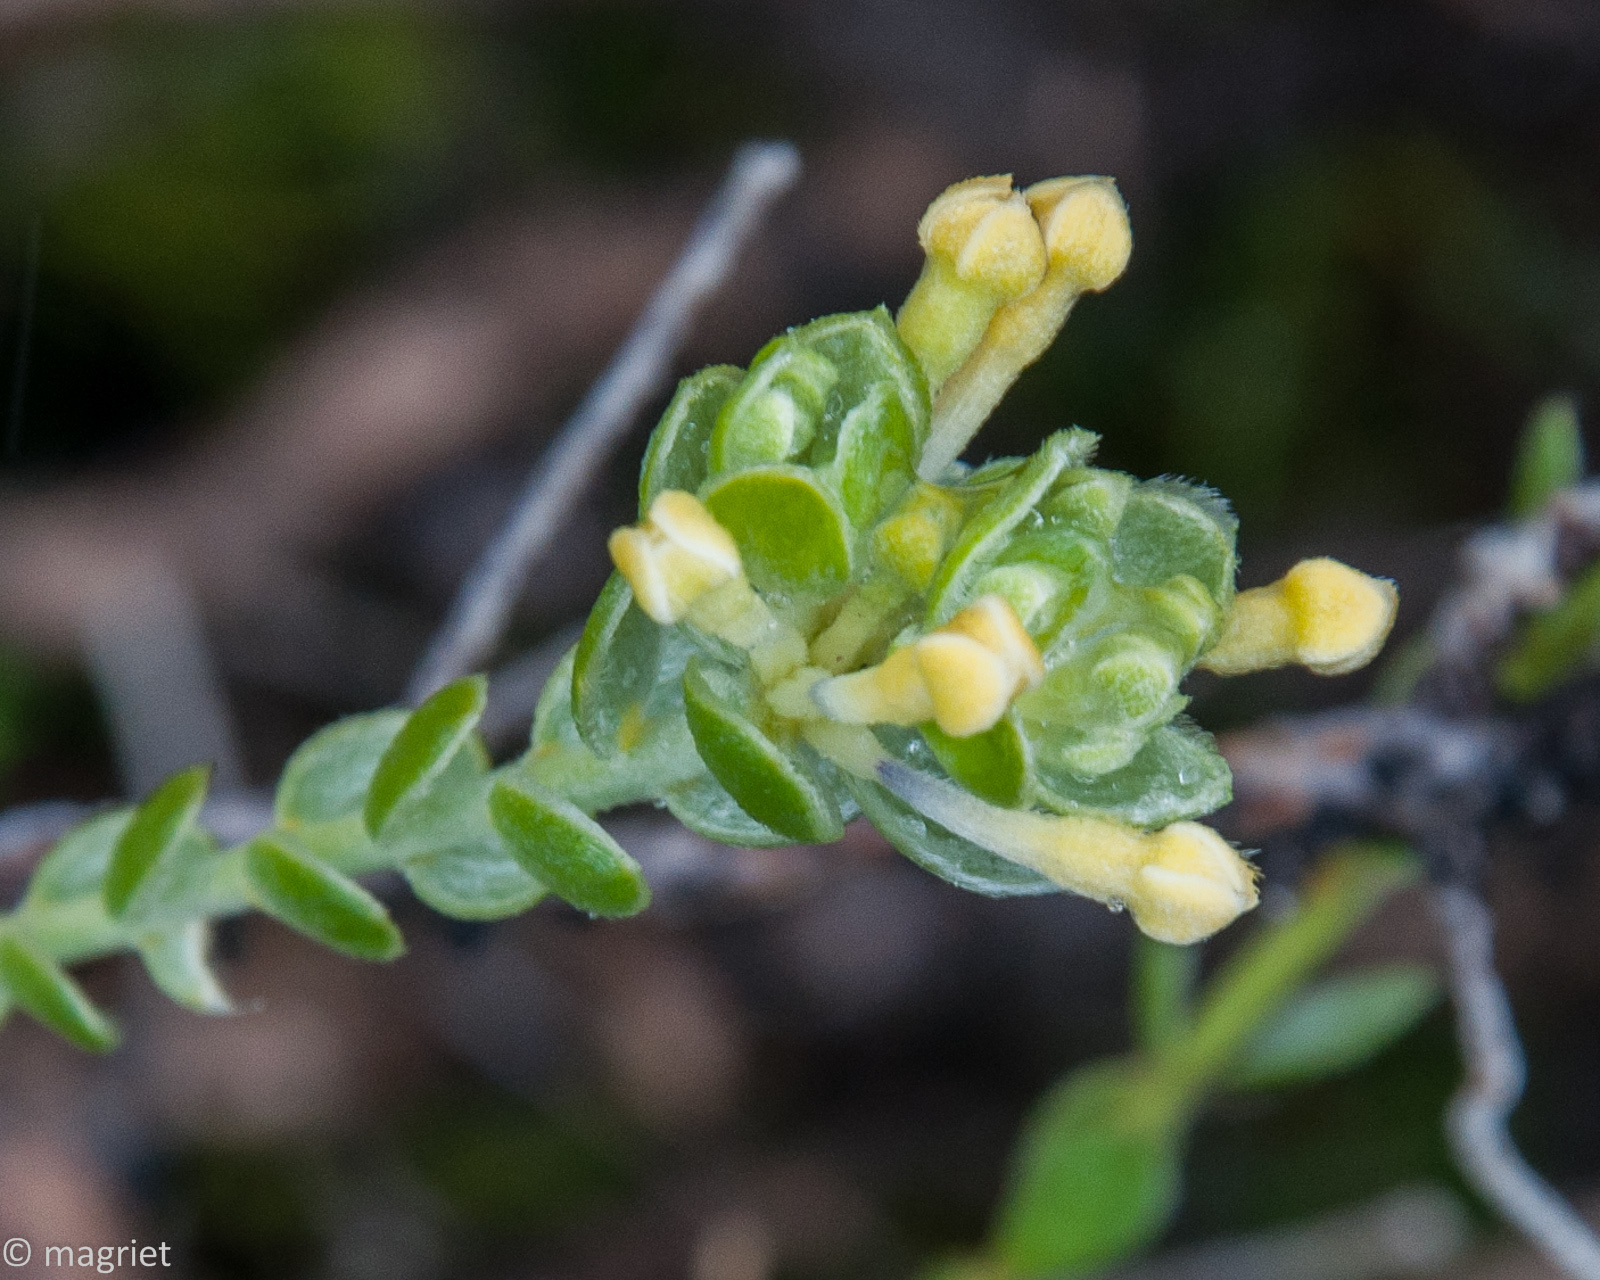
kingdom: Plantae
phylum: Tracheophyta
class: Magnoliopsida
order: Malvales
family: Thymelaeaceae
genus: Gnidia
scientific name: Gnidia tenella
